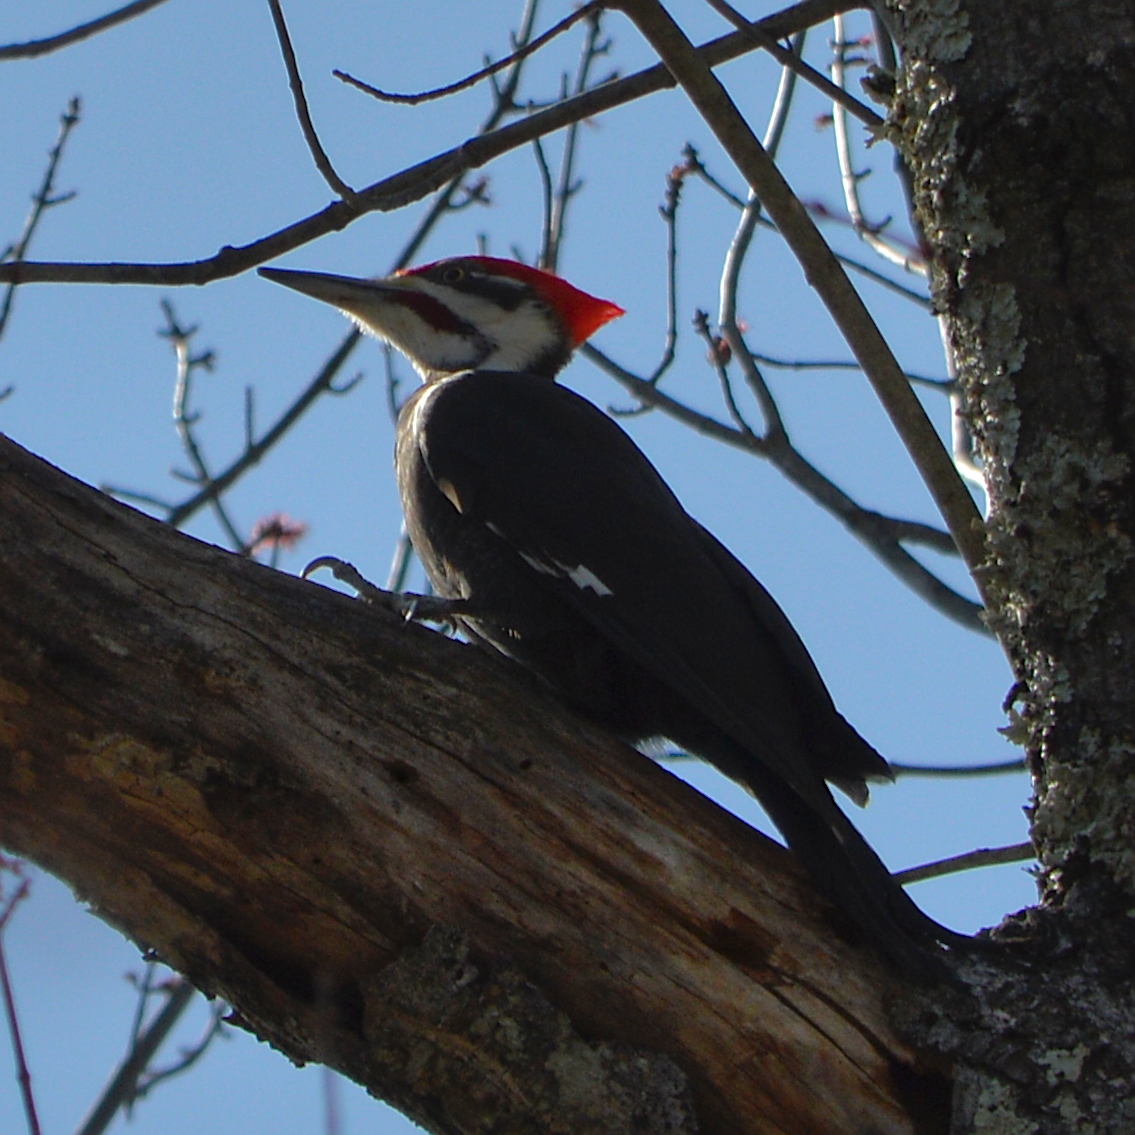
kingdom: Animalia
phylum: Chordata
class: Aves
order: Piciformes
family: Picidae
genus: Dryocopus
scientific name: Dryocopus pileatus
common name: Pileated woodpecker
